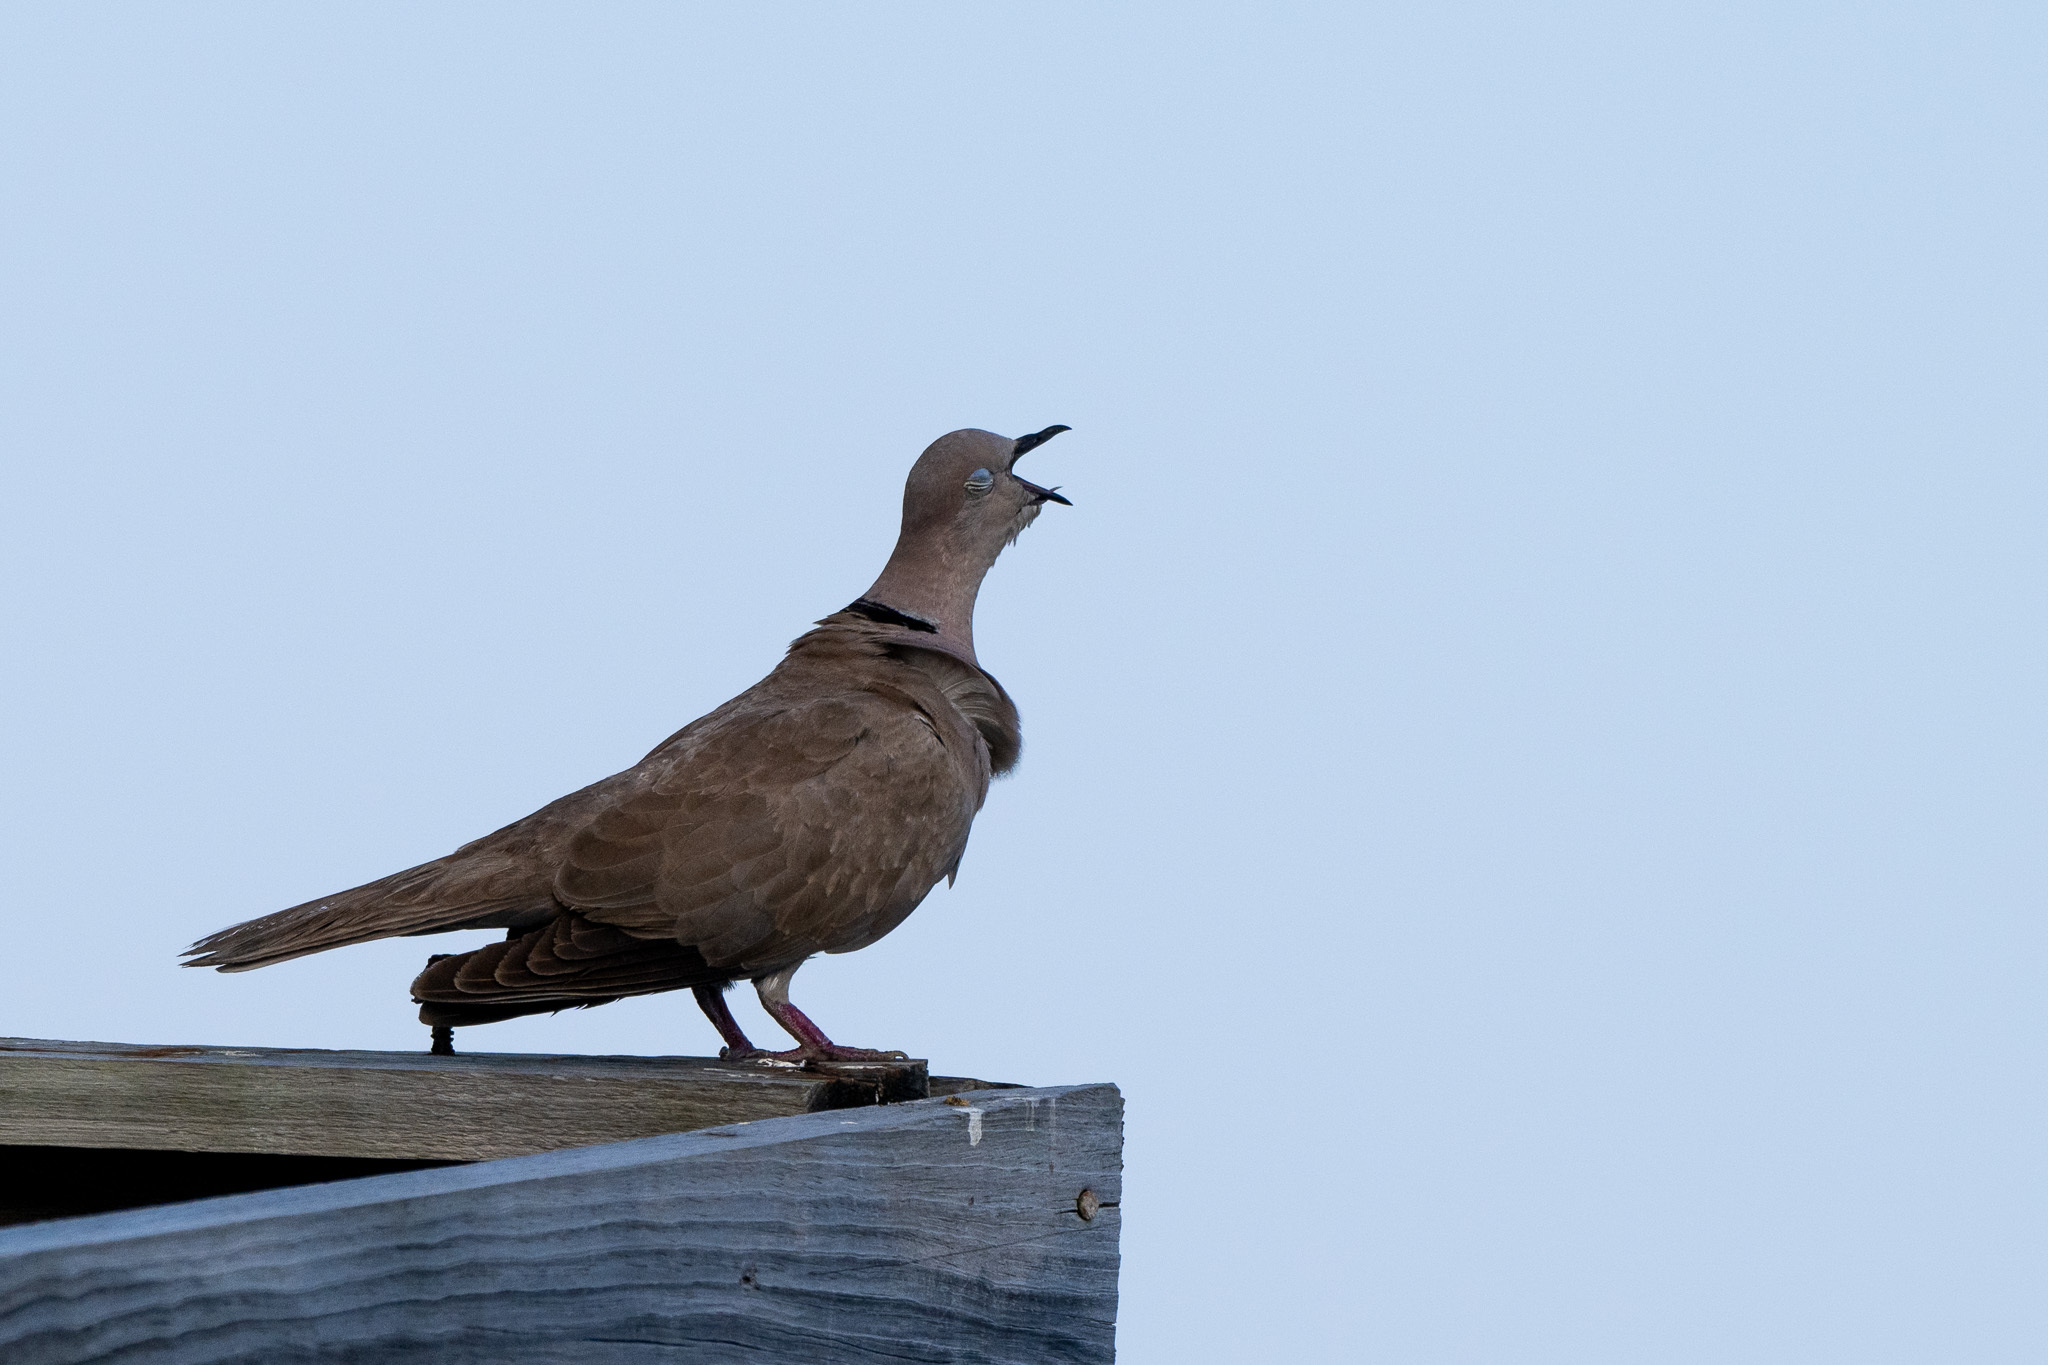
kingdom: Animalia
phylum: Chordata
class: Aves
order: Columbiformes
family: Columbidae
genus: Streptopelia
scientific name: Streptopelia decaocto
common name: Eurasian collared dove
